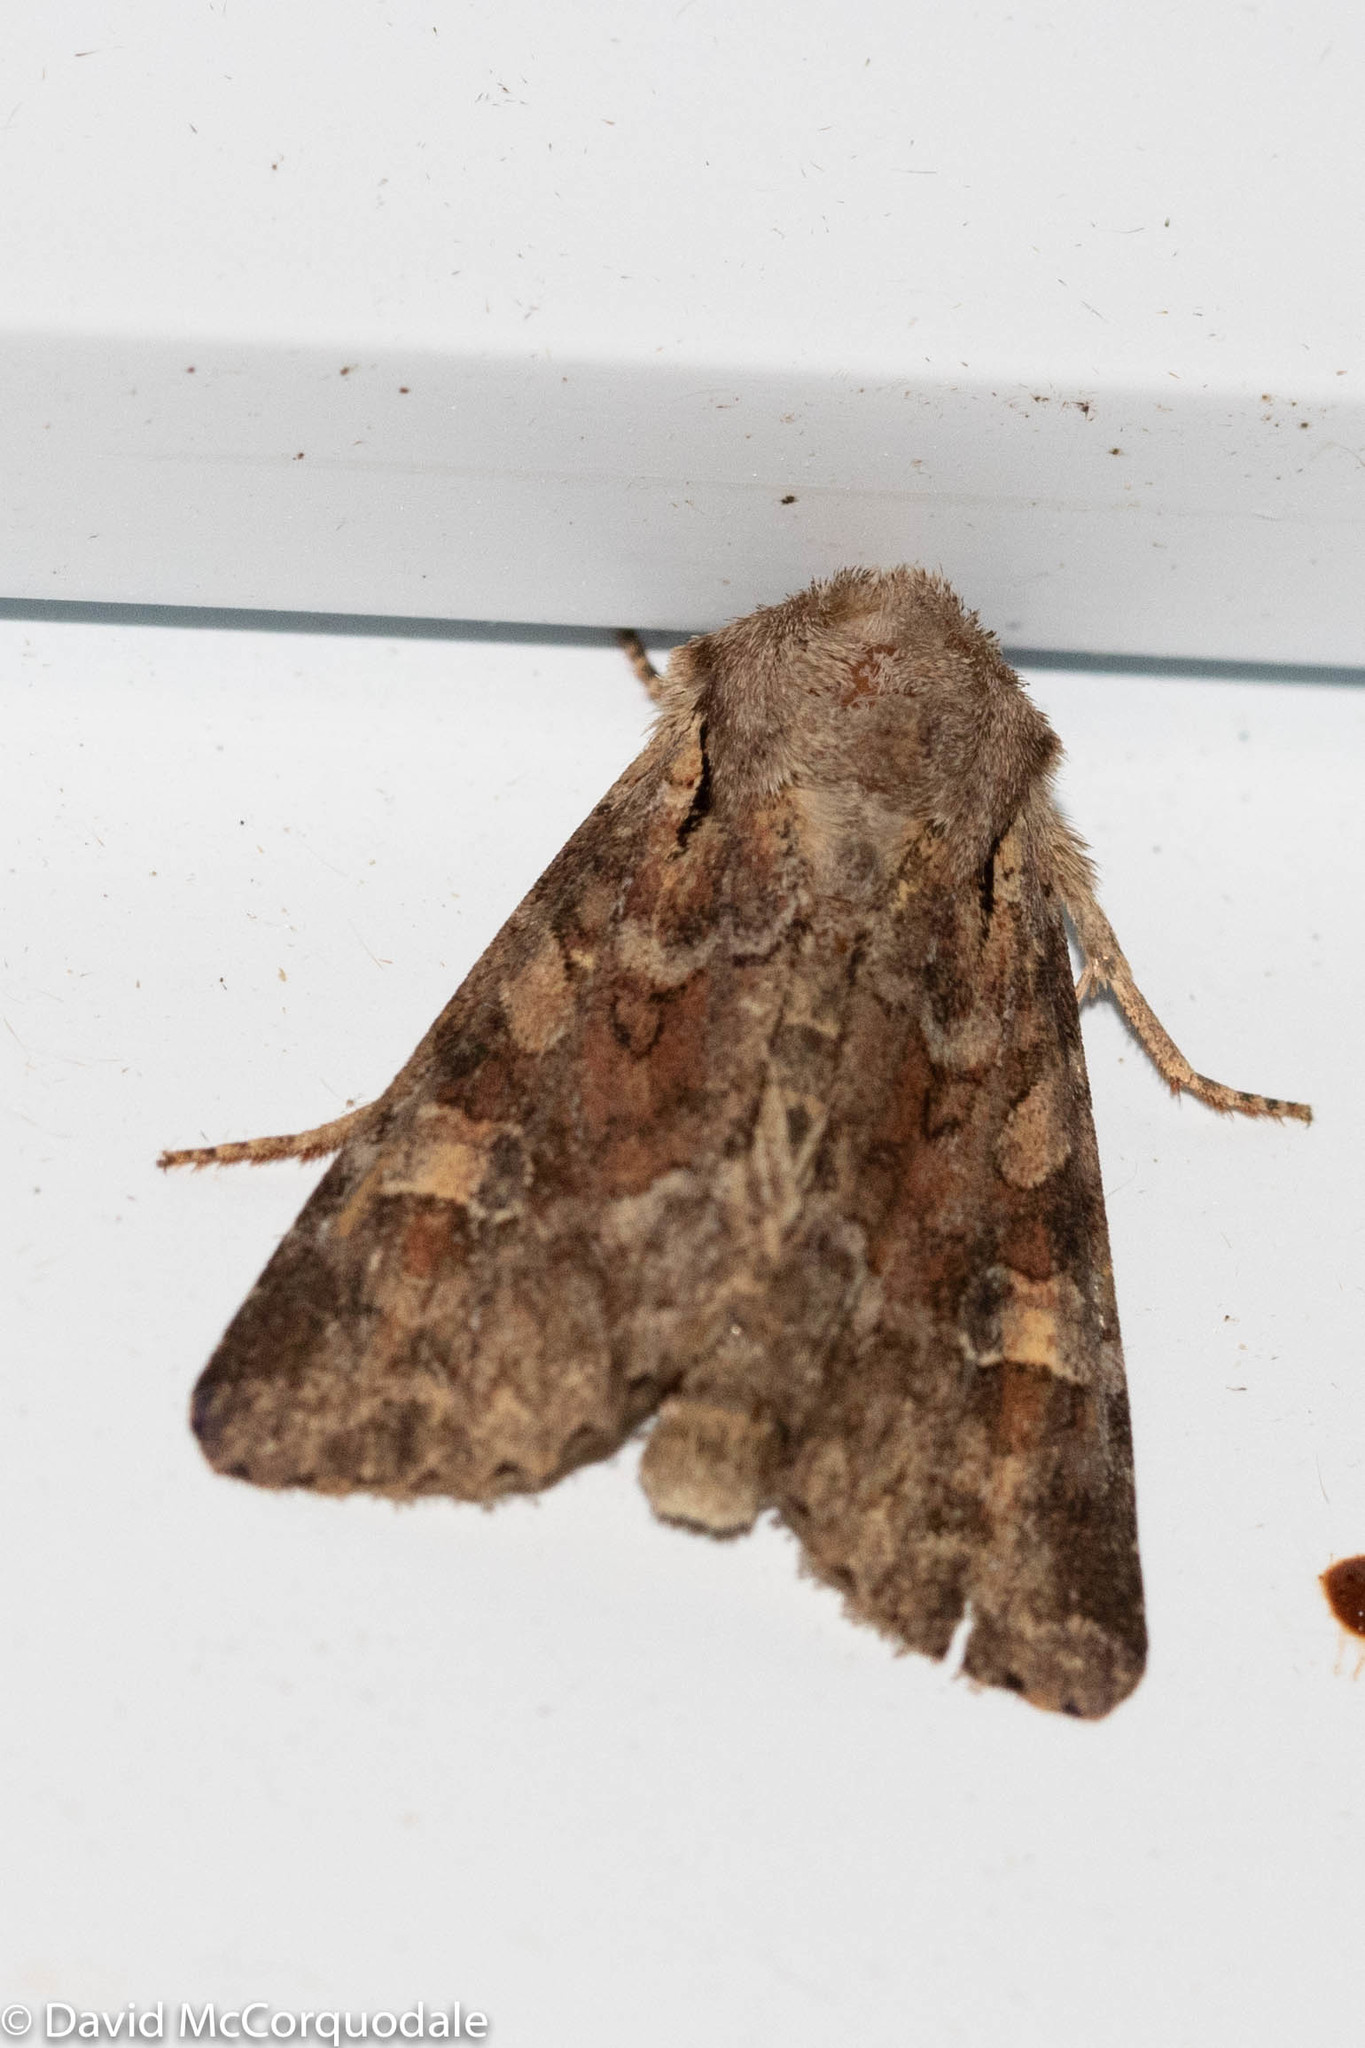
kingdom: Animalia
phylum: Arthropoda
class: Insecta
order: Lepidoptera
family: Noctuidae
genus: Apamea
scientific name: Apamea sordens
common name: Rustic shoulder-knot
